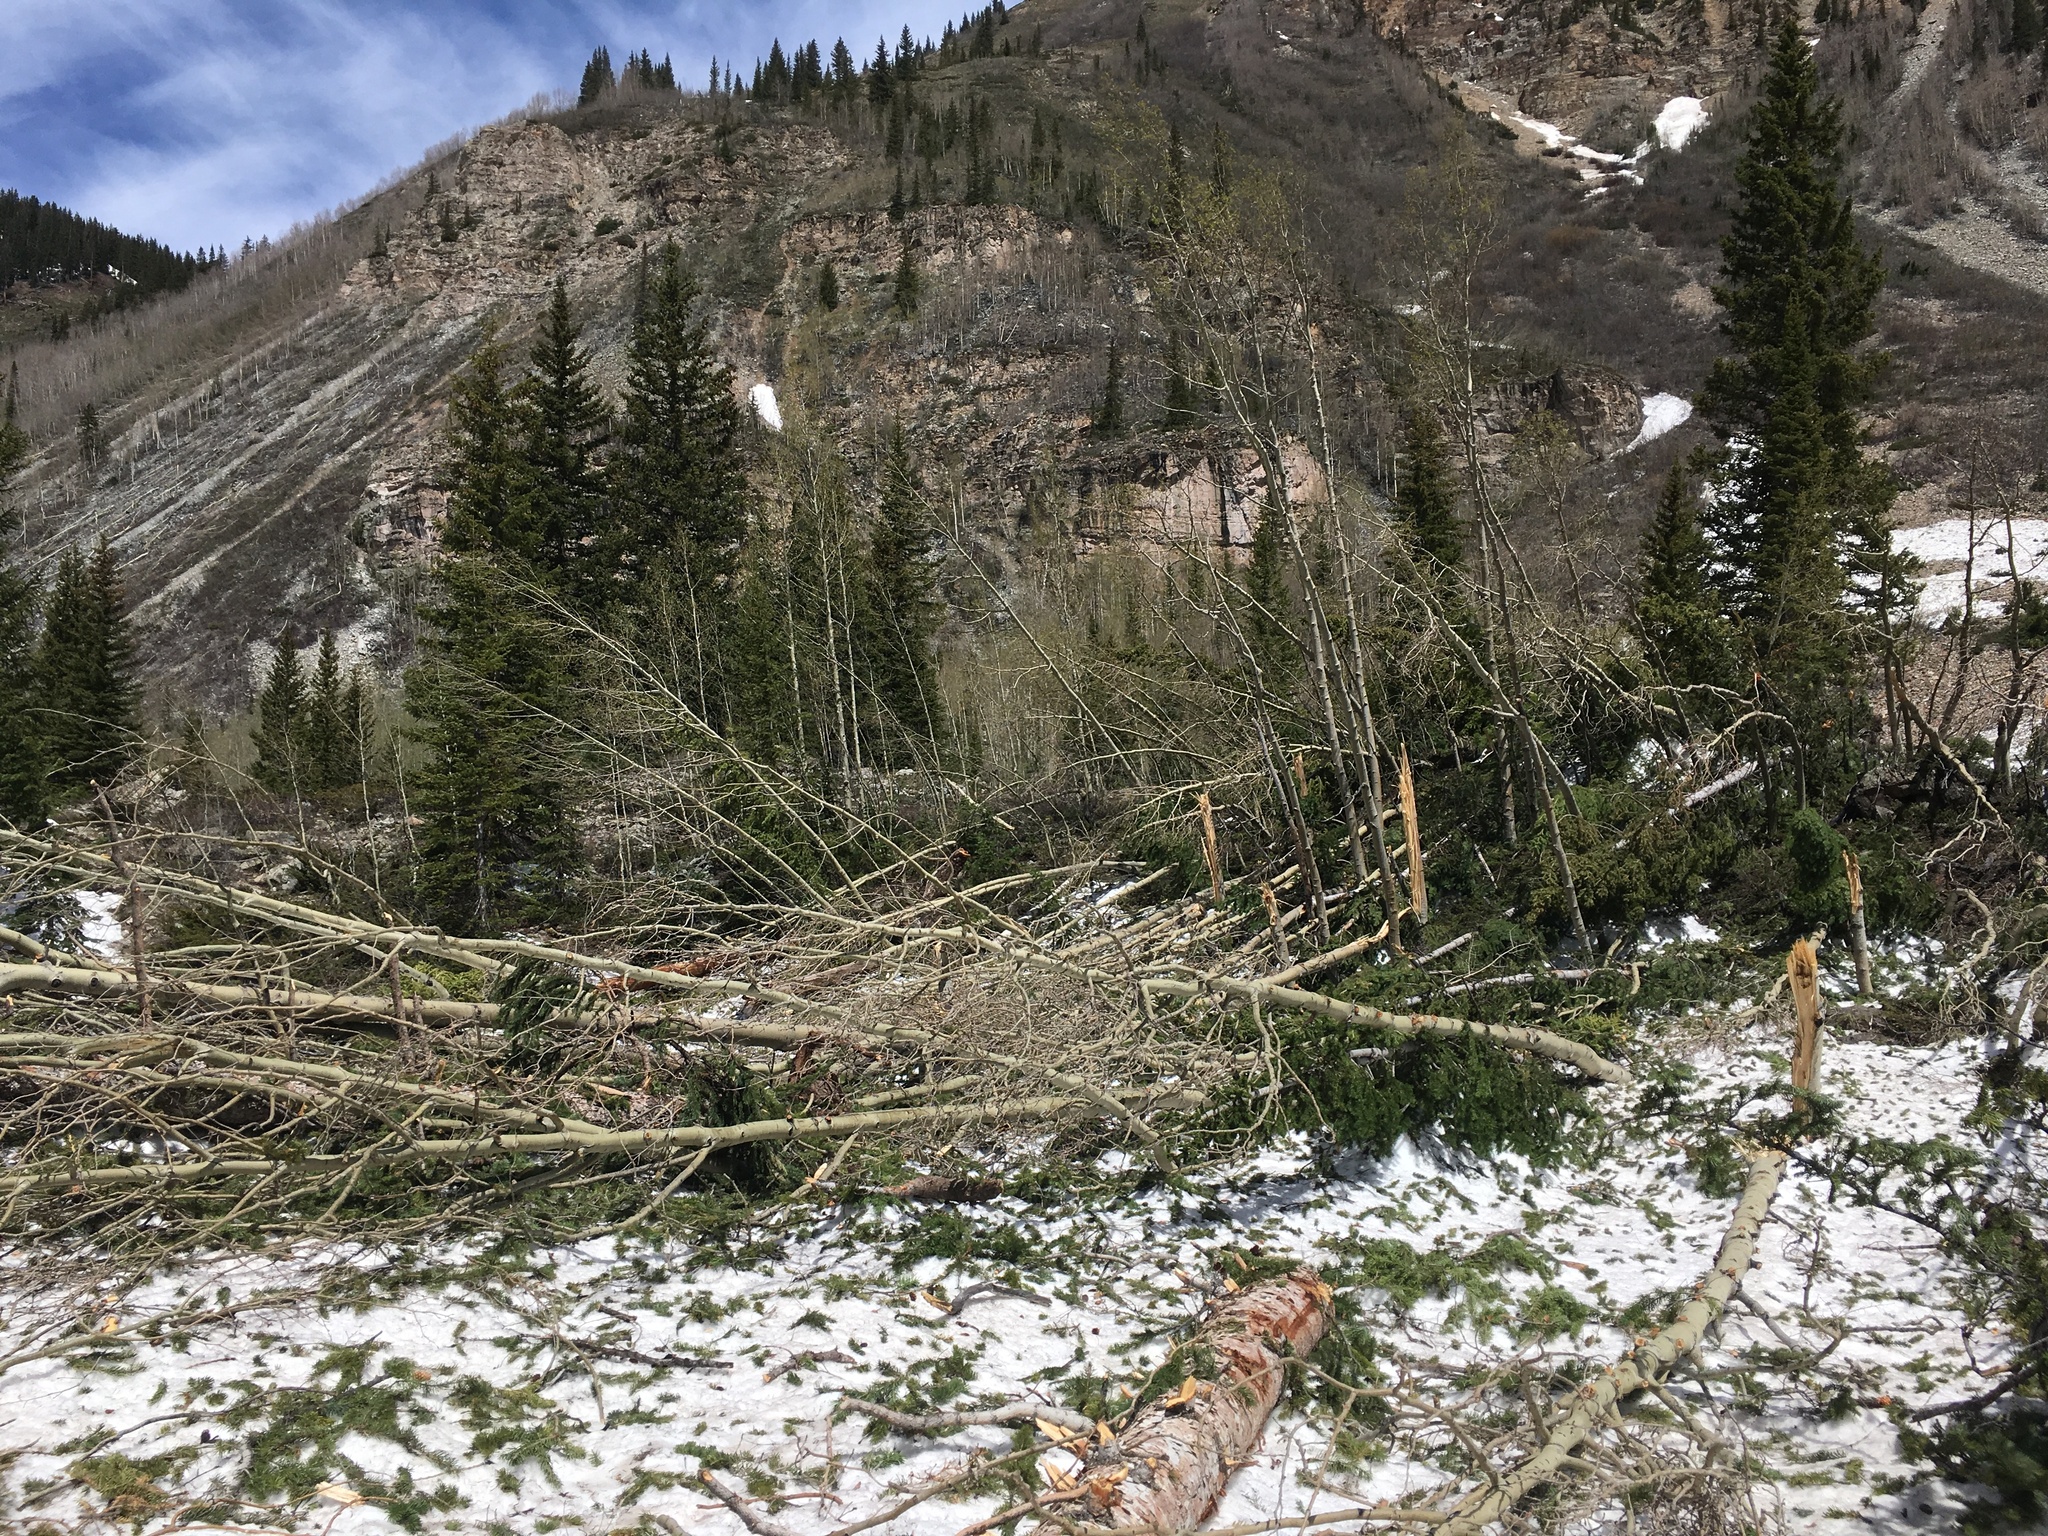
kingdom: Plantae
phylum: Tracheophyta
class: Magnoliopsida
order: Malpighiales
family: Salicaceae
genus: Populus
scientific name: Populus tremuloides
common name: Quaking aspen
